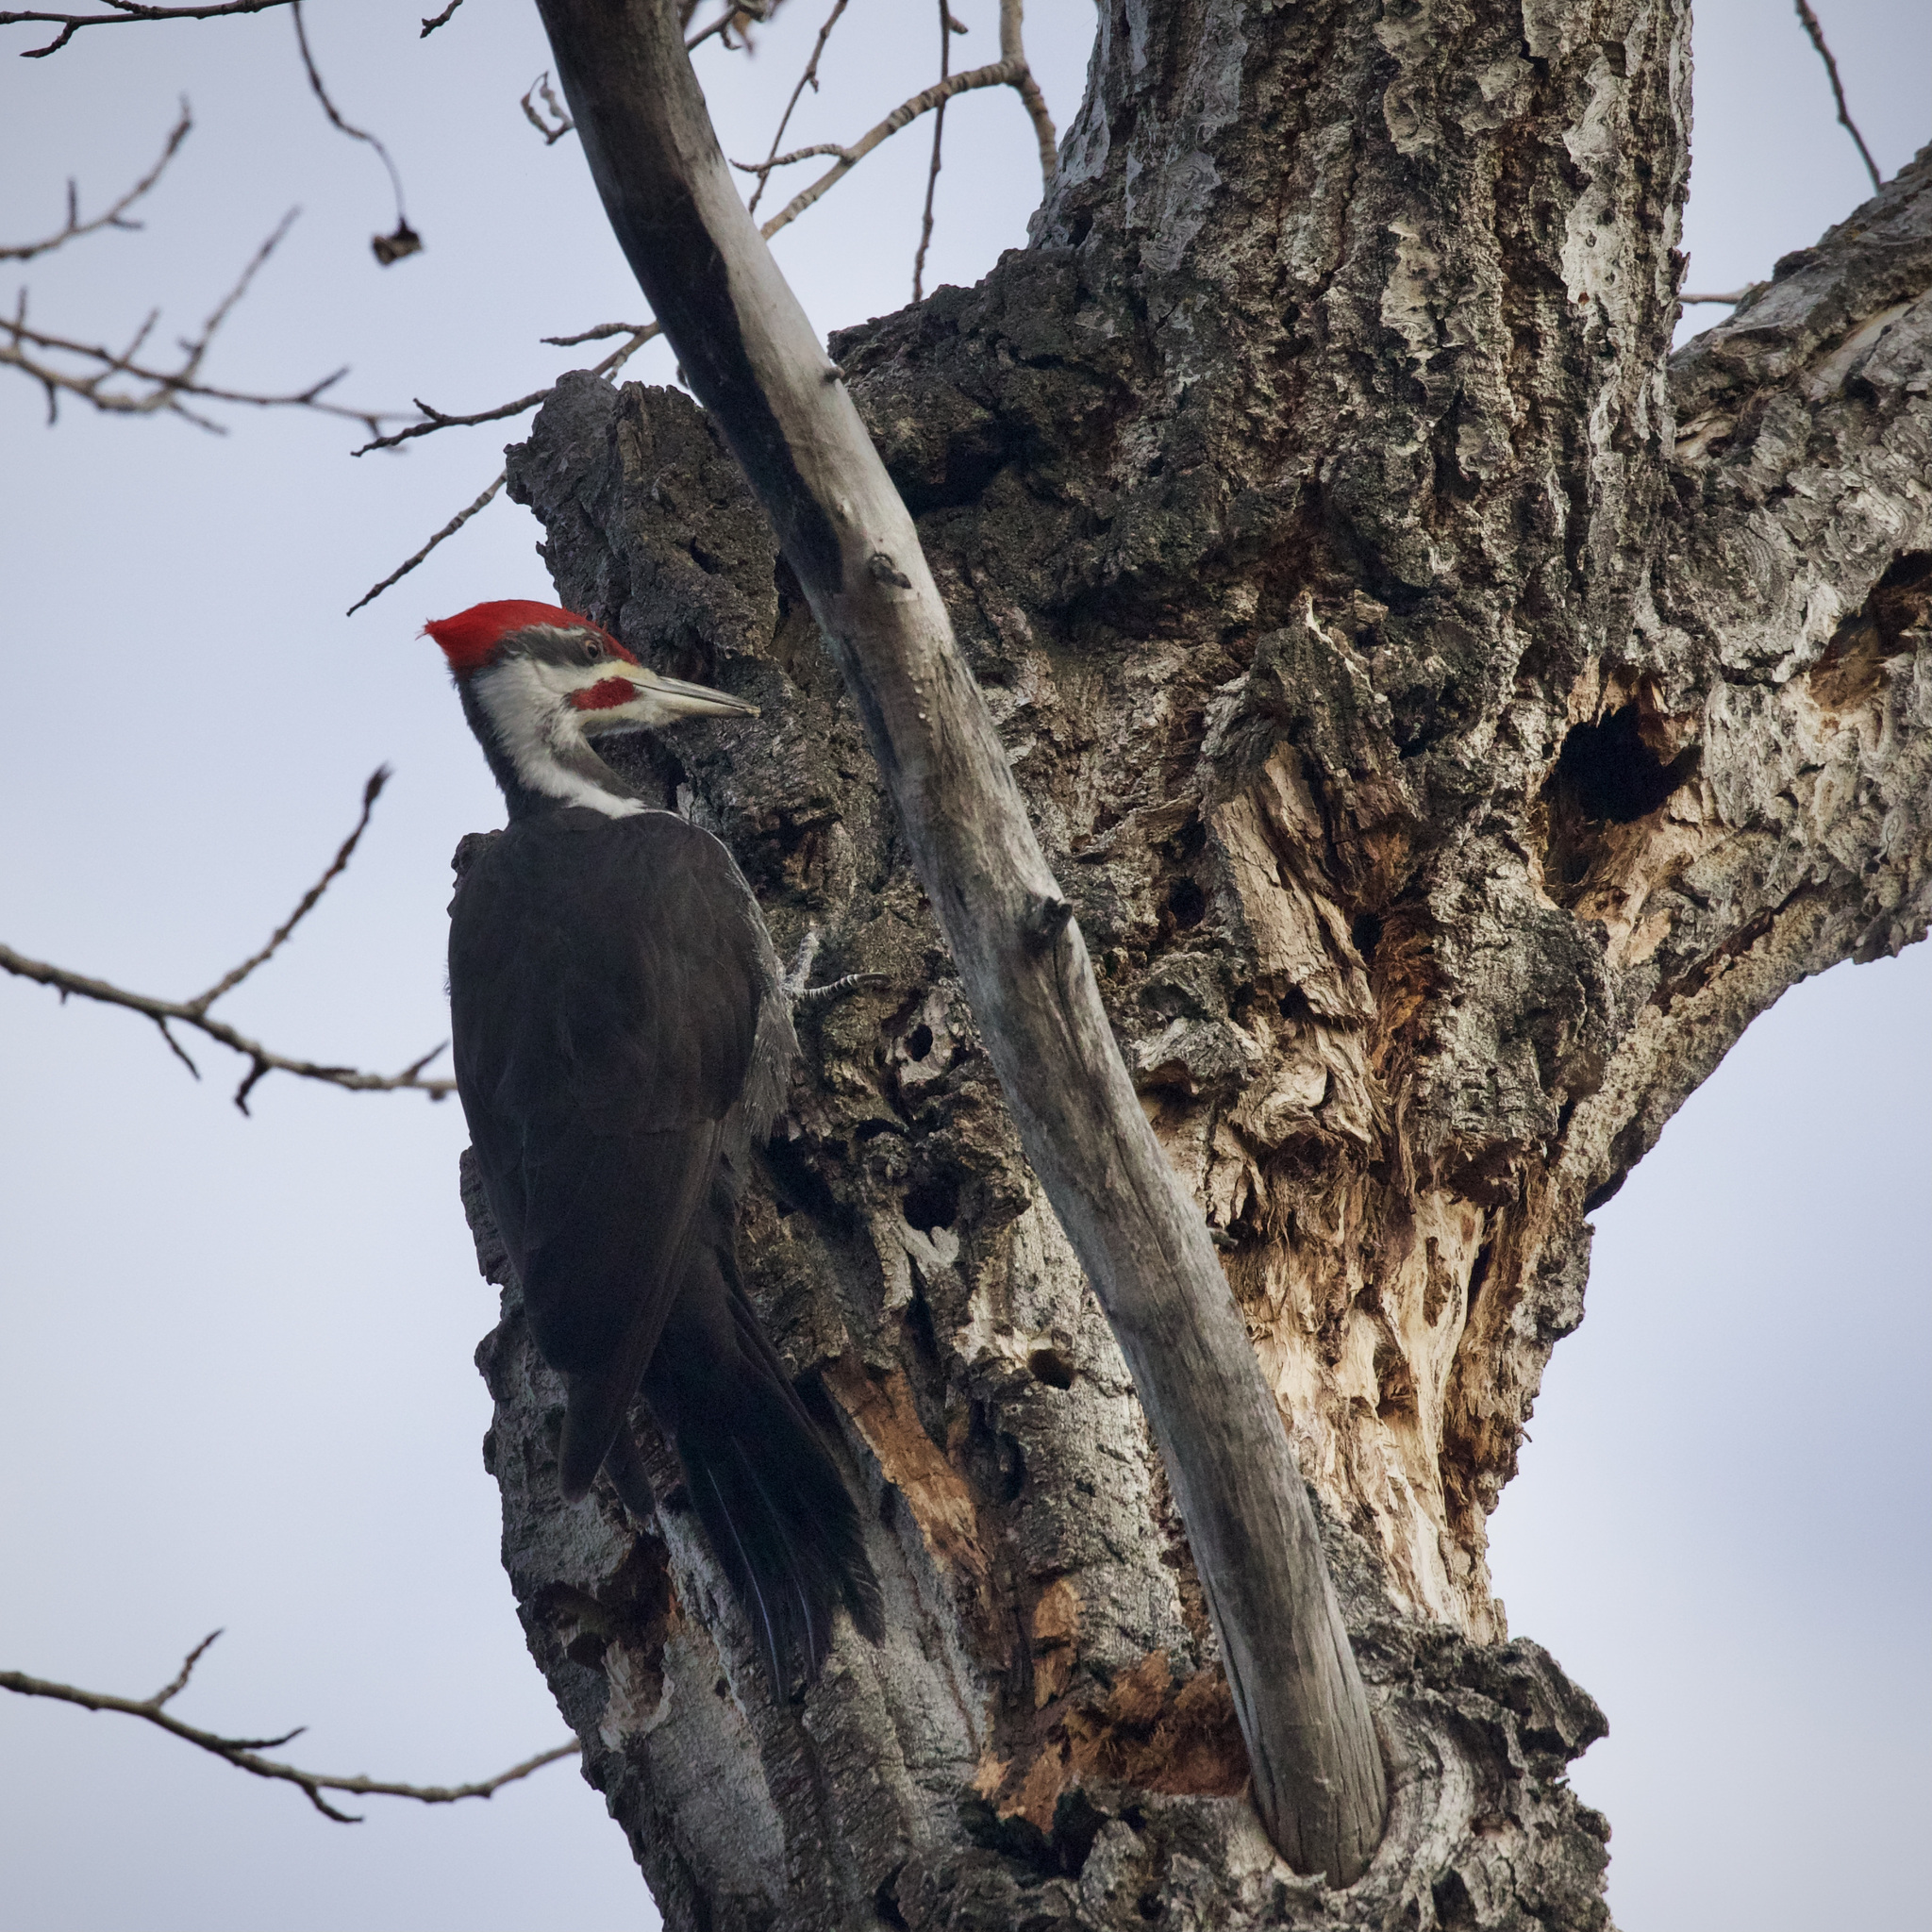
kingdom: Animalia
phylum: Chordata
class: Aves
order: Piciformes
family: Picidae
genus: Dryocopus
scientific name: Dryocopus pileatus
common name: Pileated woodpecker
